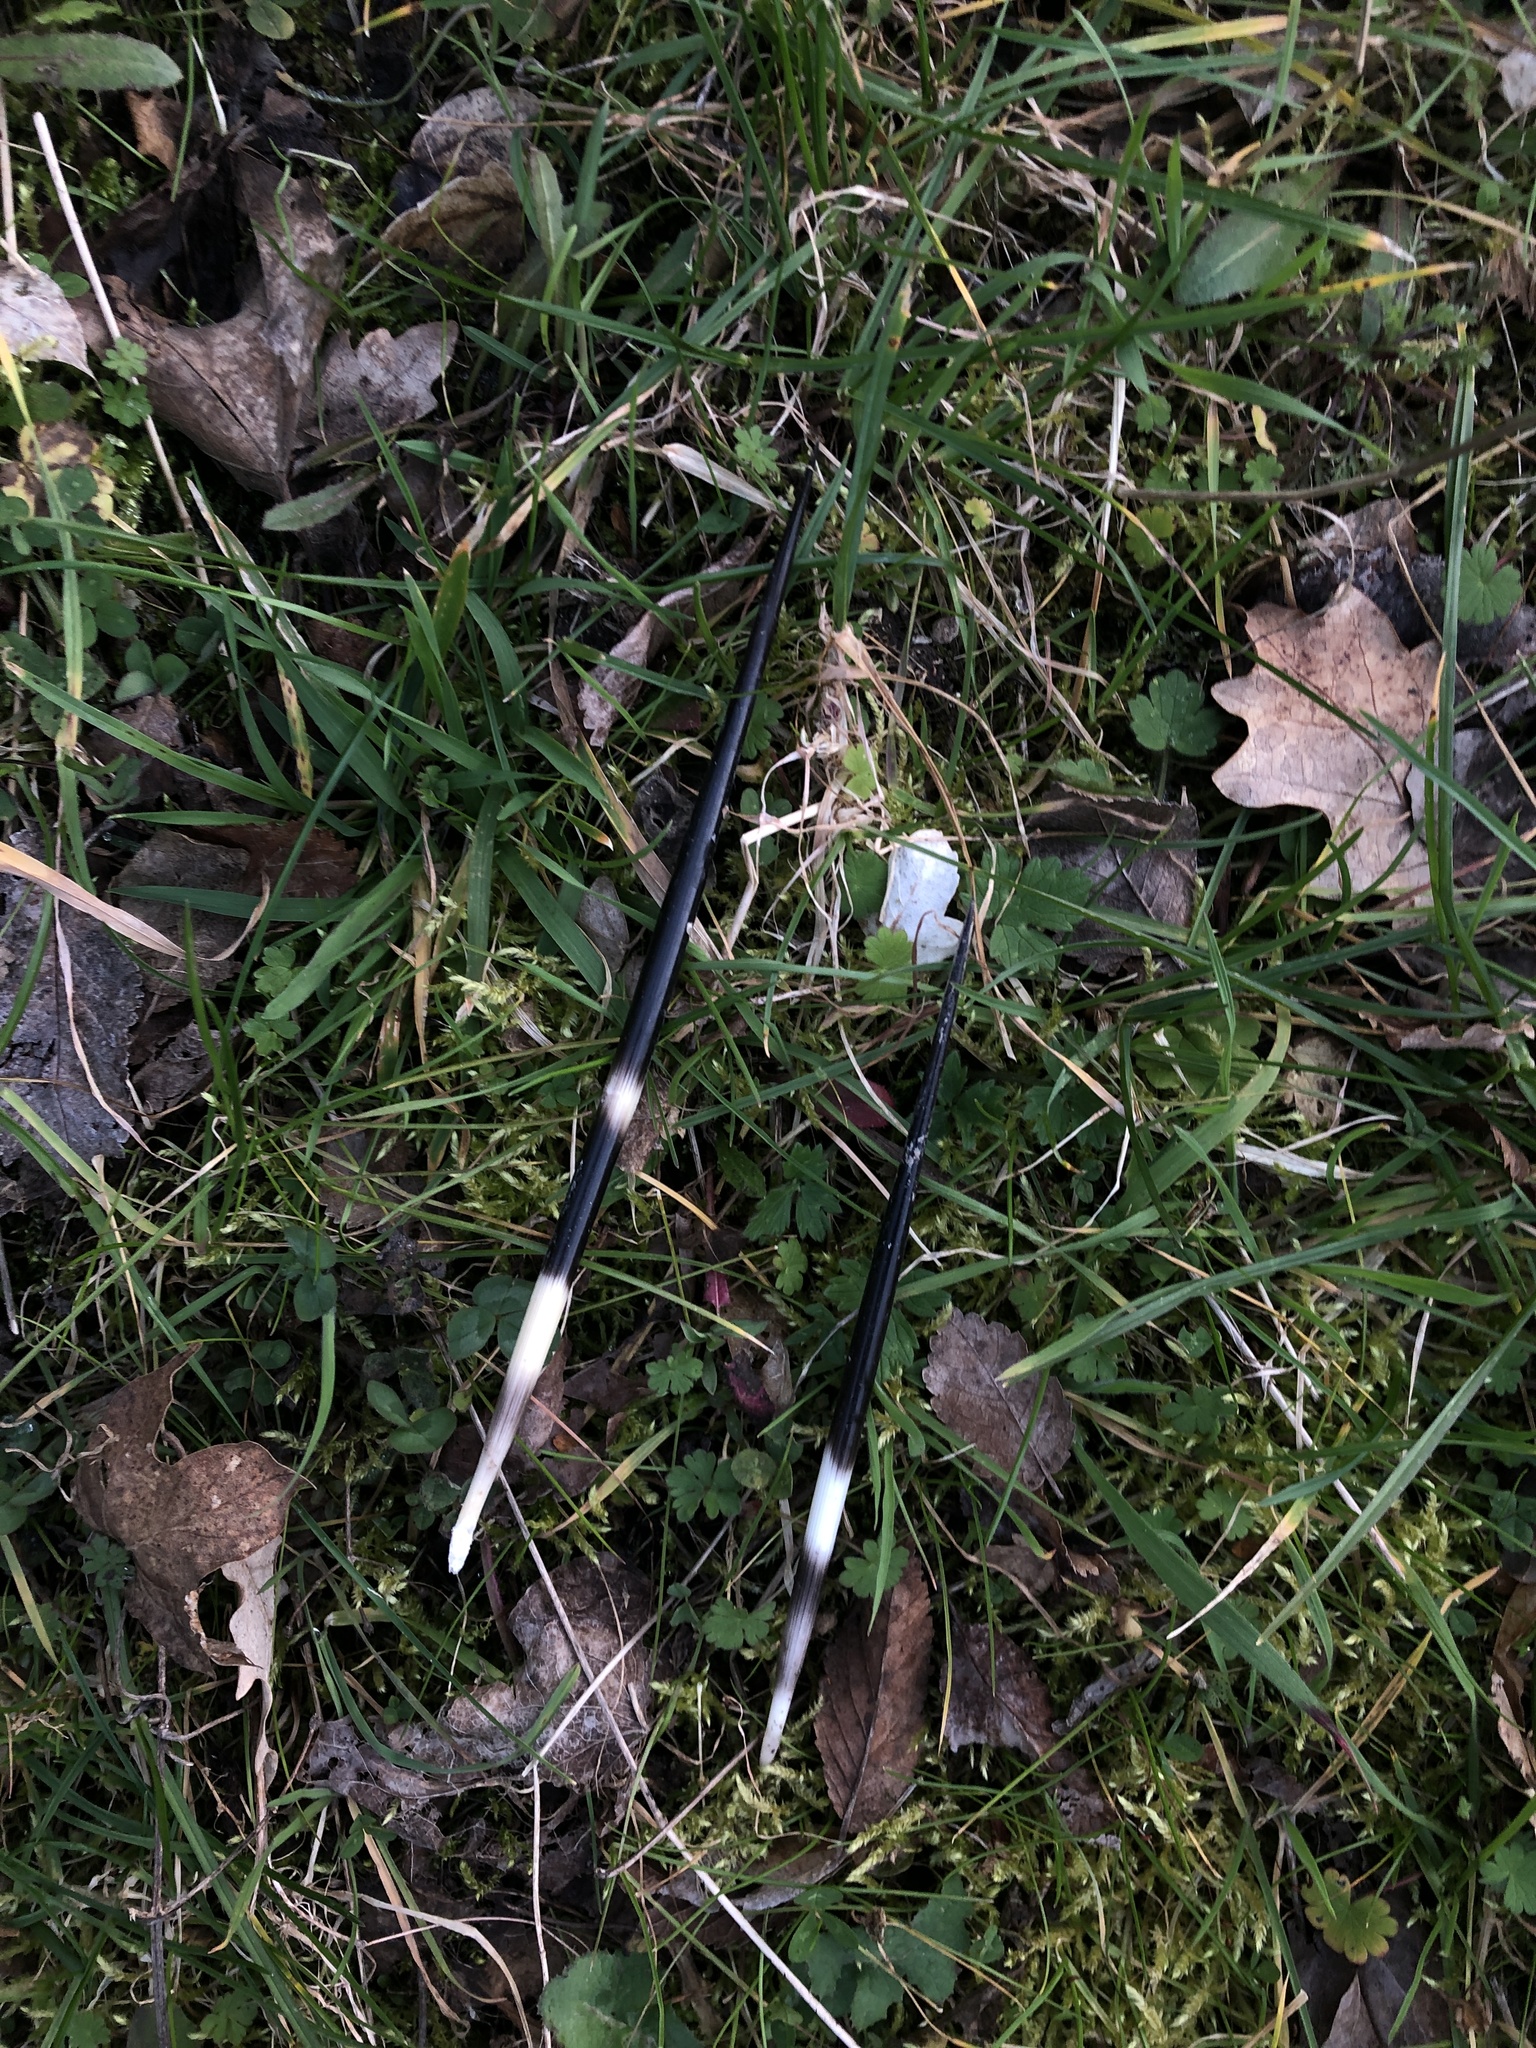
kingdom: Animalia
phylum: Chordata
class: Mammalia
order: Rodentia
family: Hystricidae
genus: Hystrix
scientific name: Hystrix cristata
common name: Crested porcupine
